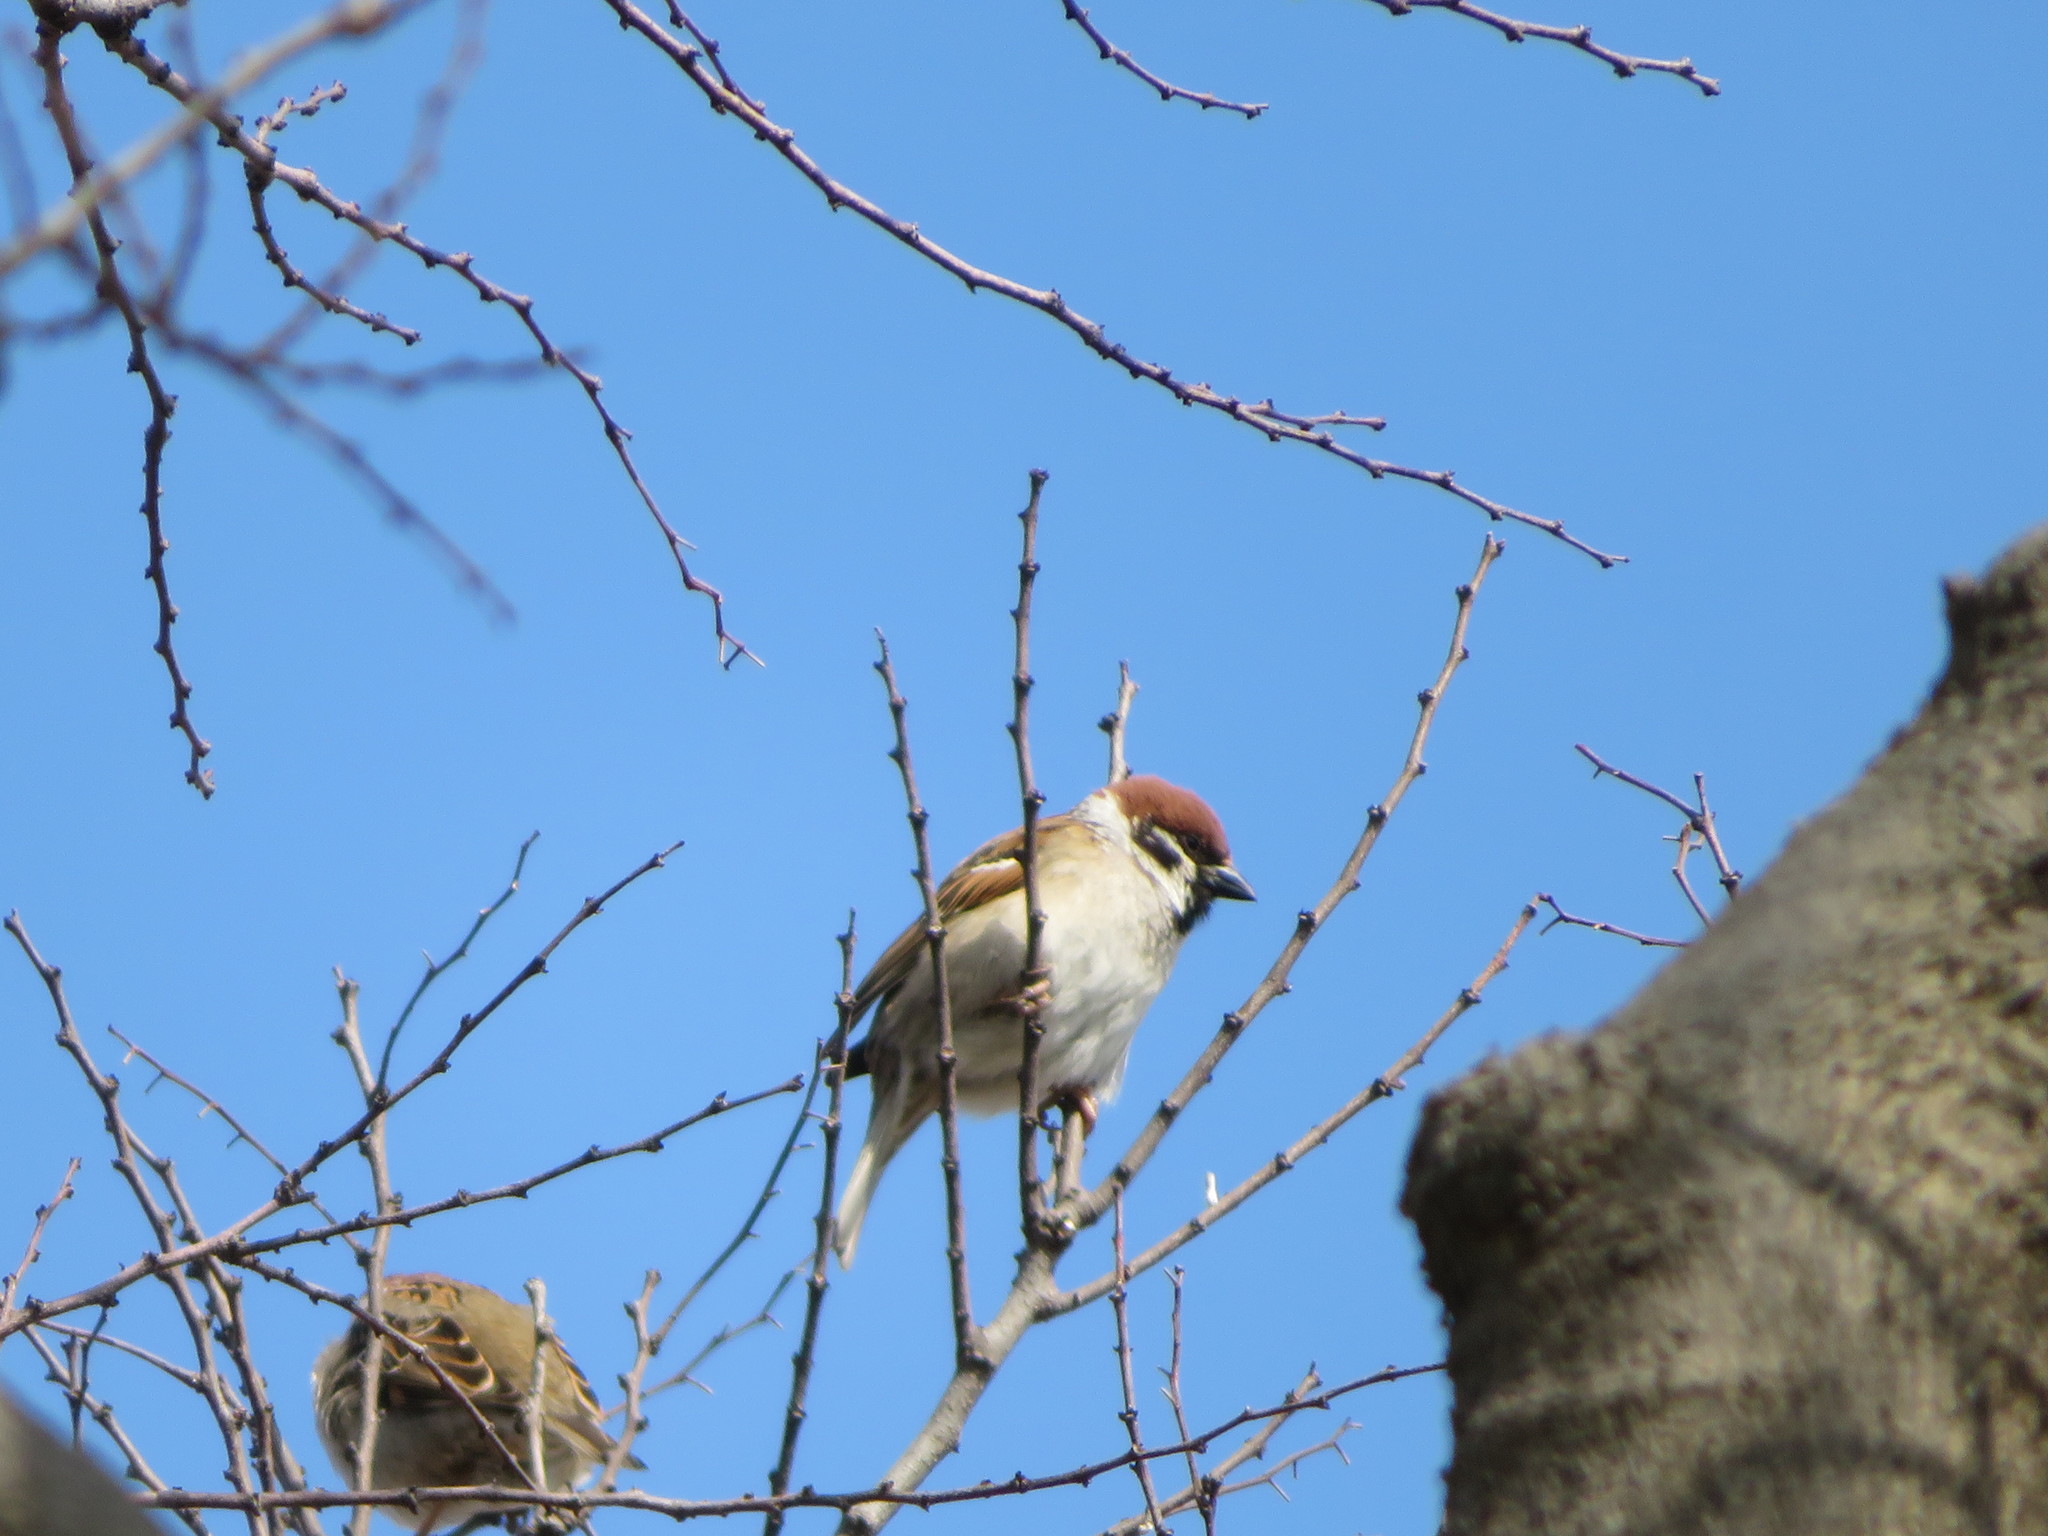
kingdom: Animalia
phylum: Chordata
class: Aves
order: Passeriformes
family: Passeridae
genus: Passer
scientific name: Passer montanus
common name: Eurasian tree sparrow
